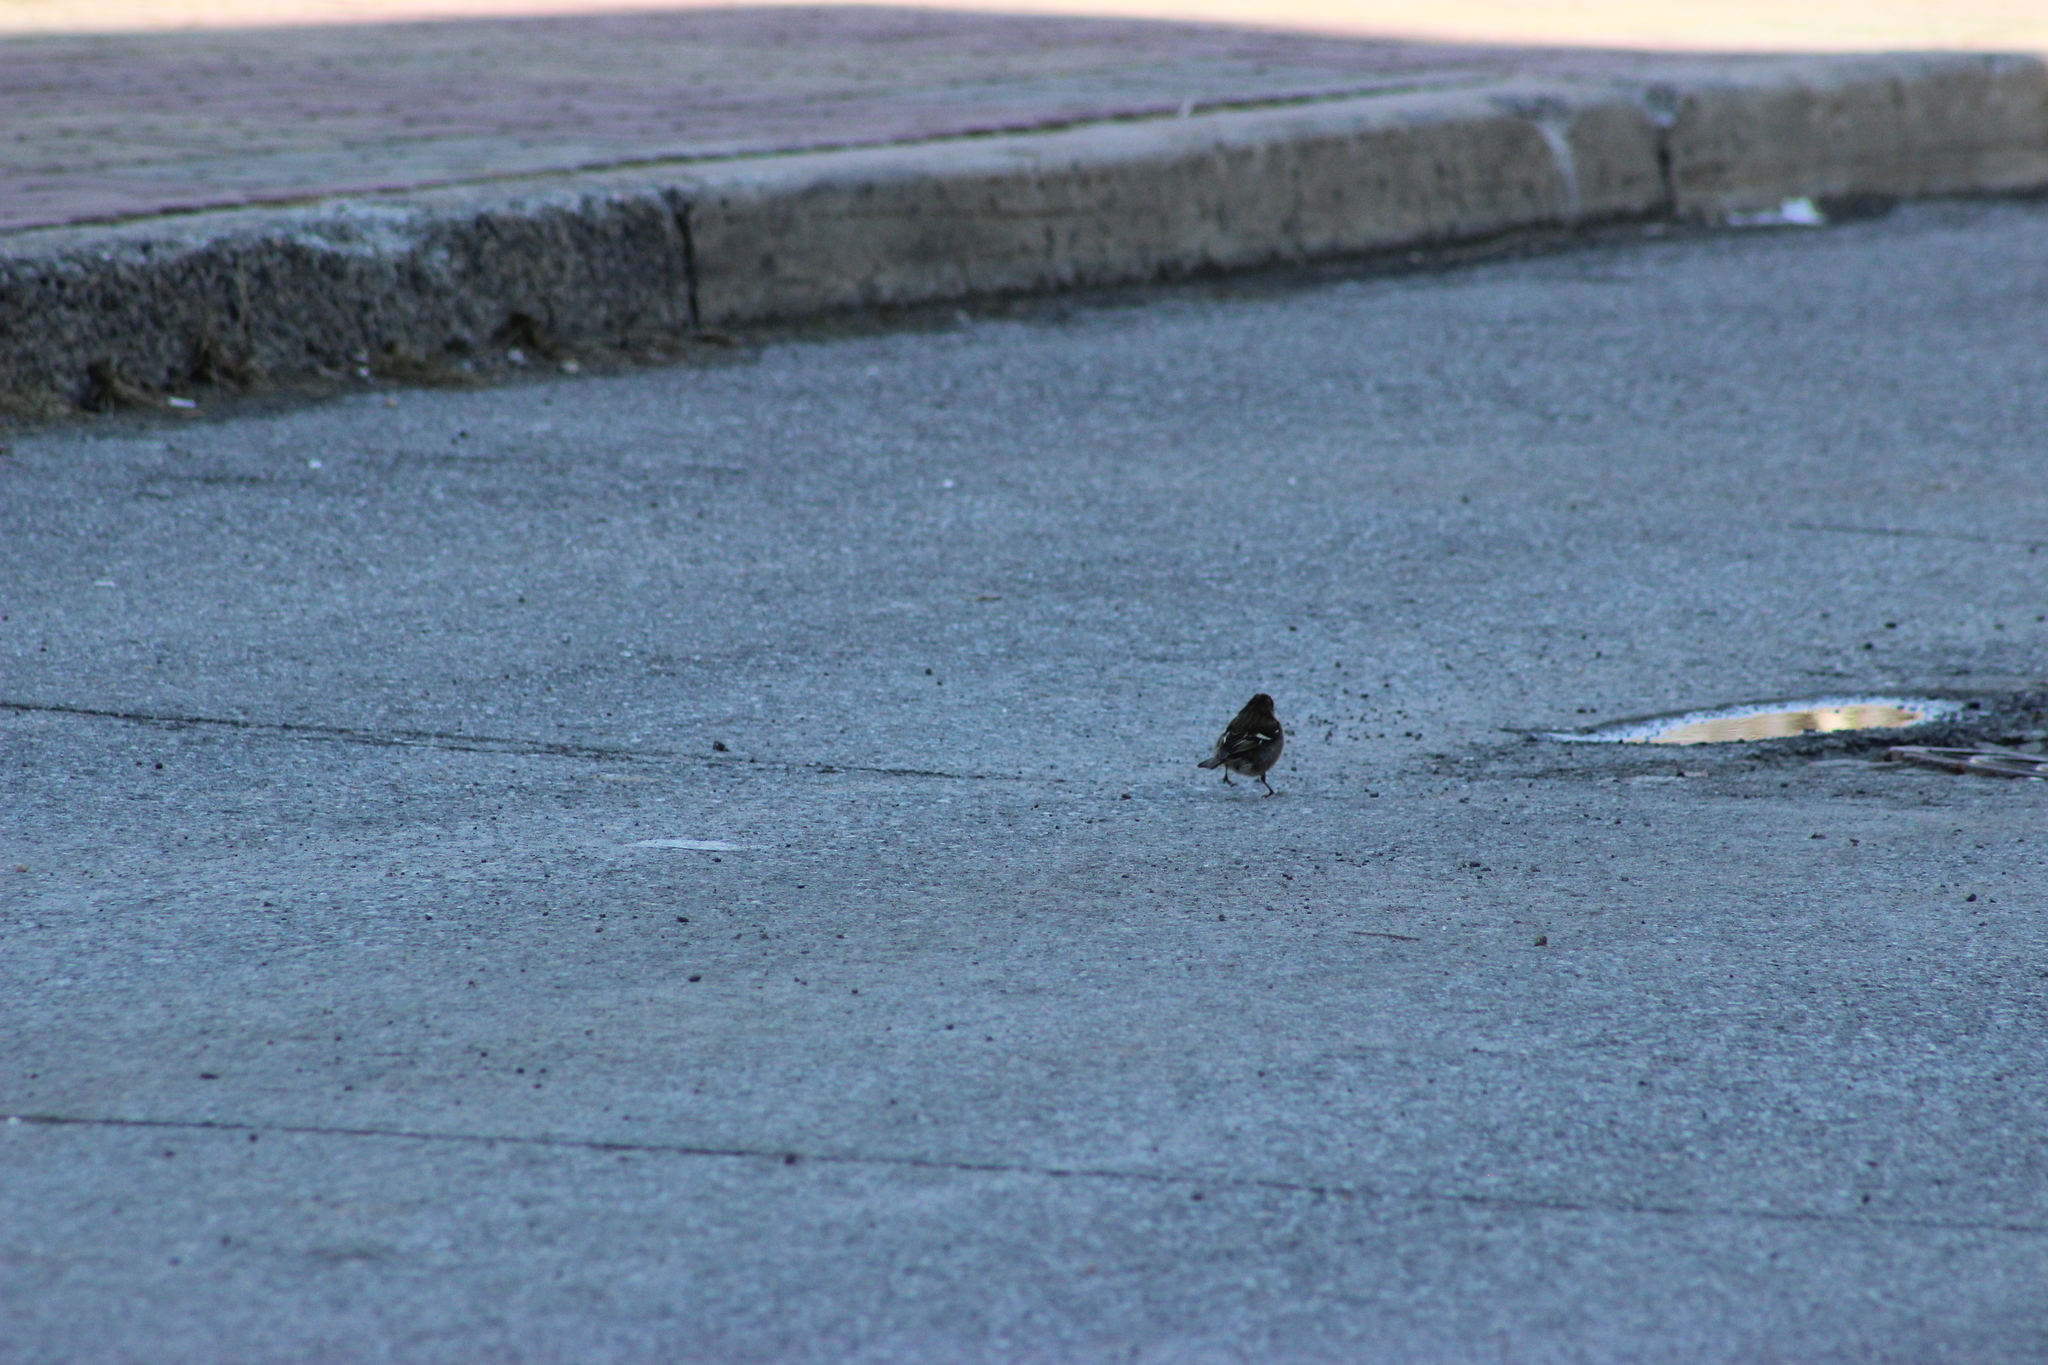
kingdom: Animalia
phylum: Chordata
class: Aves
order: Passeriformes
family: Fringillidae
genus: Fringilla
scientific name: Fringilla coelebs
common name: Common chaffinch
